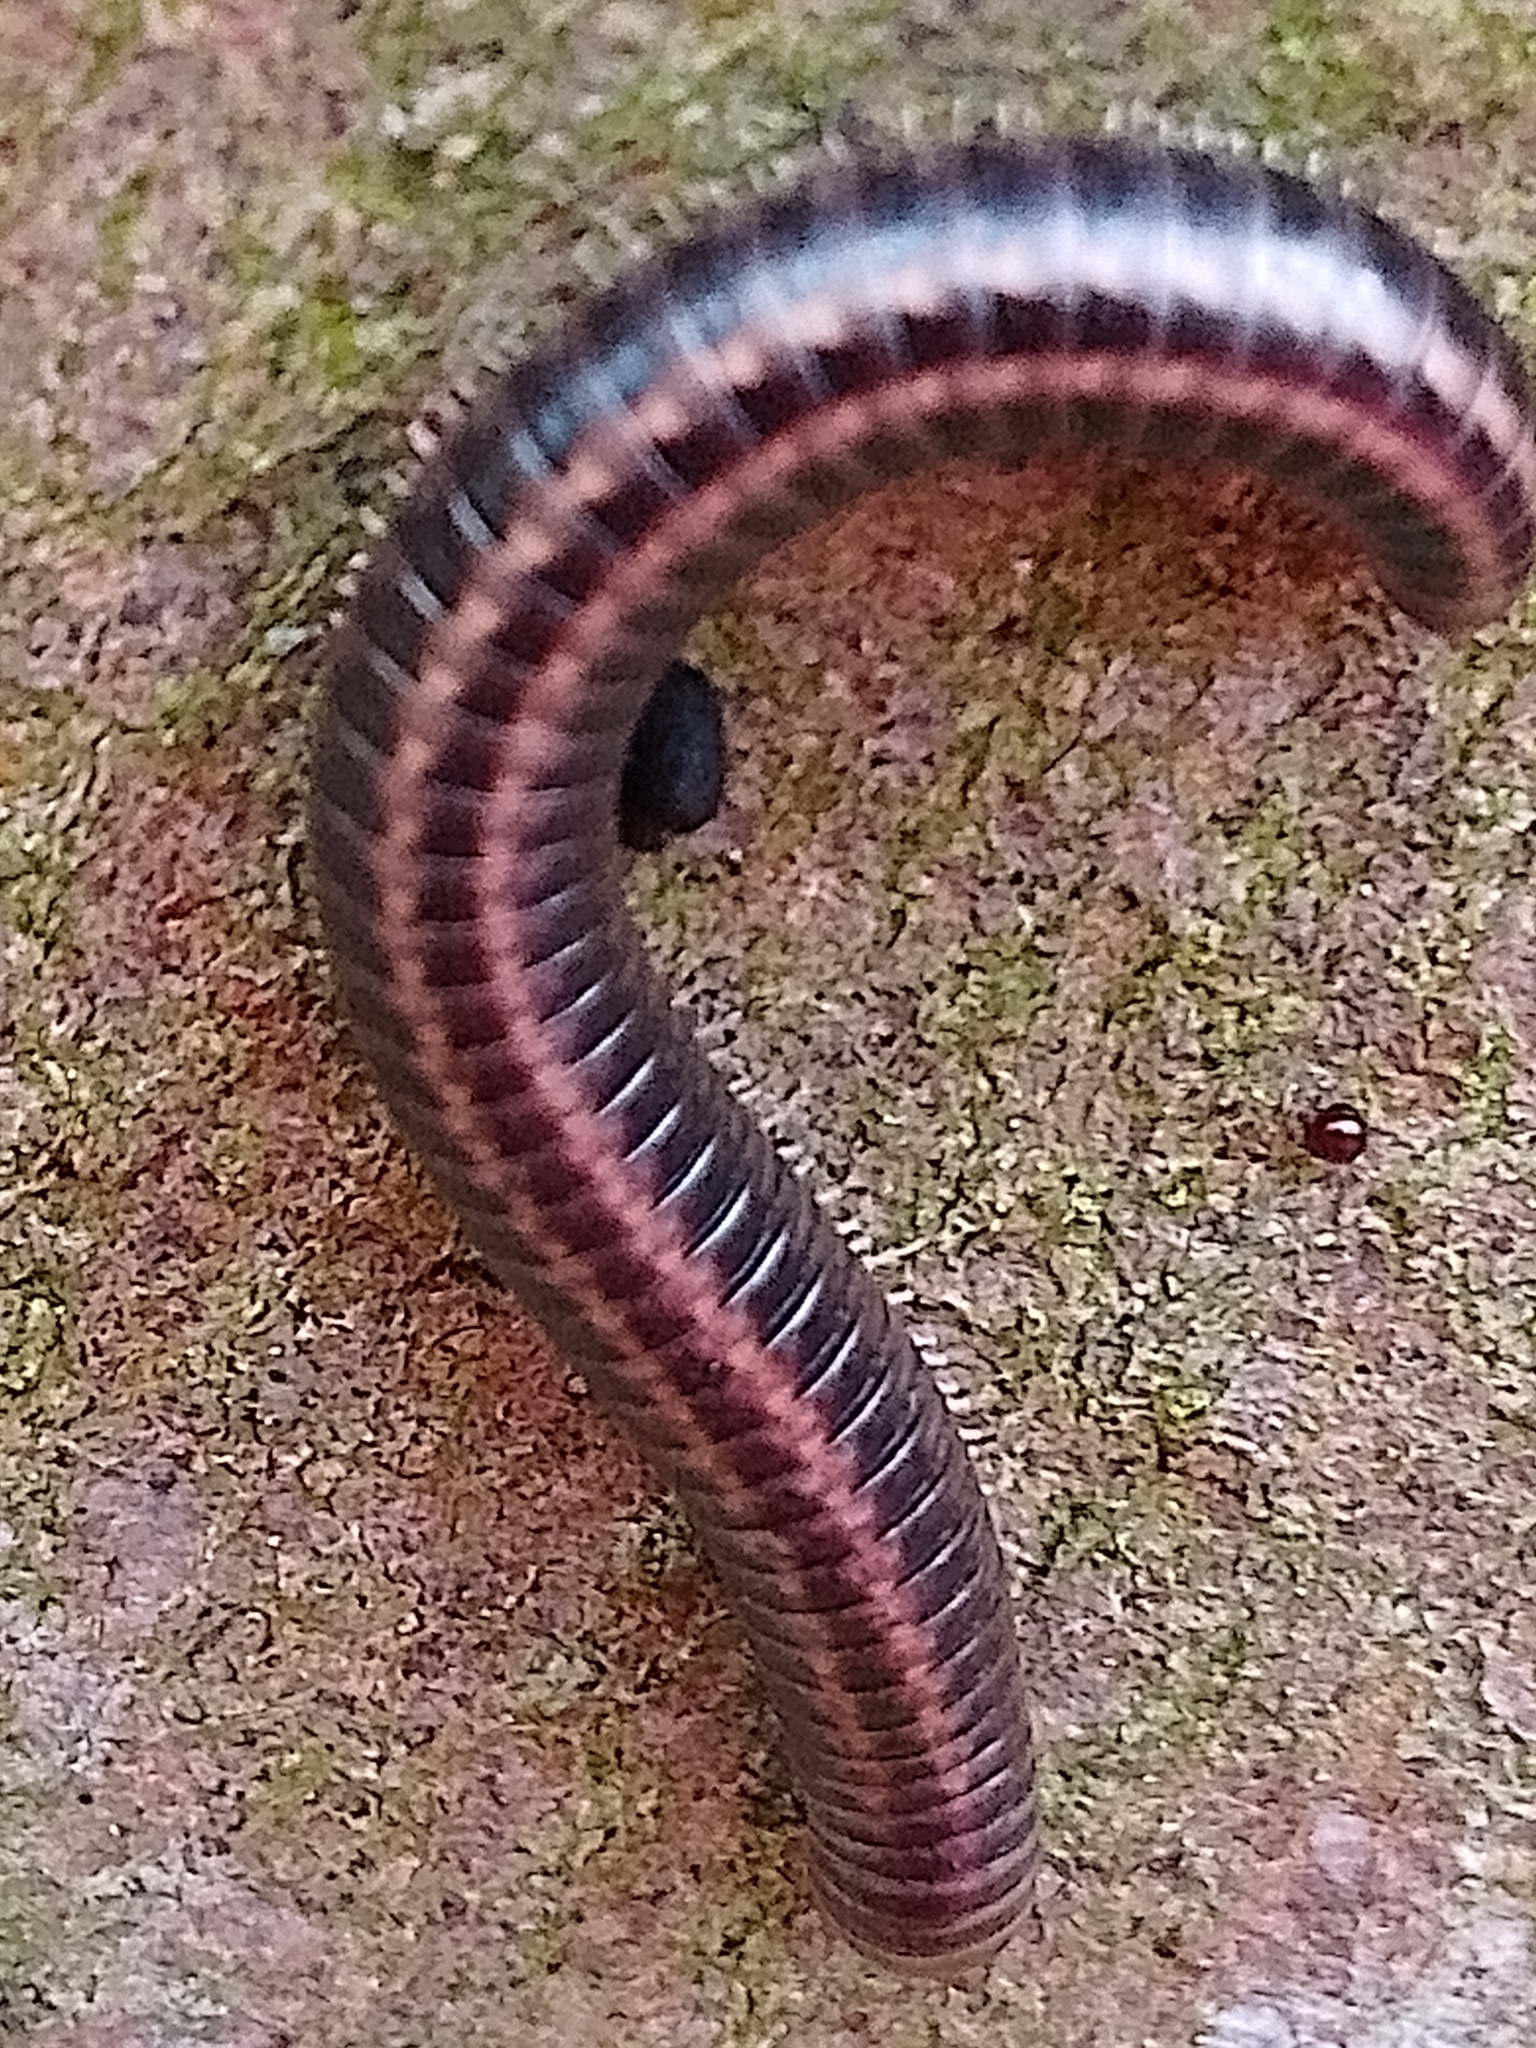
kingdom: Animalia
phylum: Arthropoda
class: Diplopoda
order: Julida
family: Julidae
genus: Ommatoiulus
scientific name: Ommatoiulus sabulosus
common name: Striped millipede
